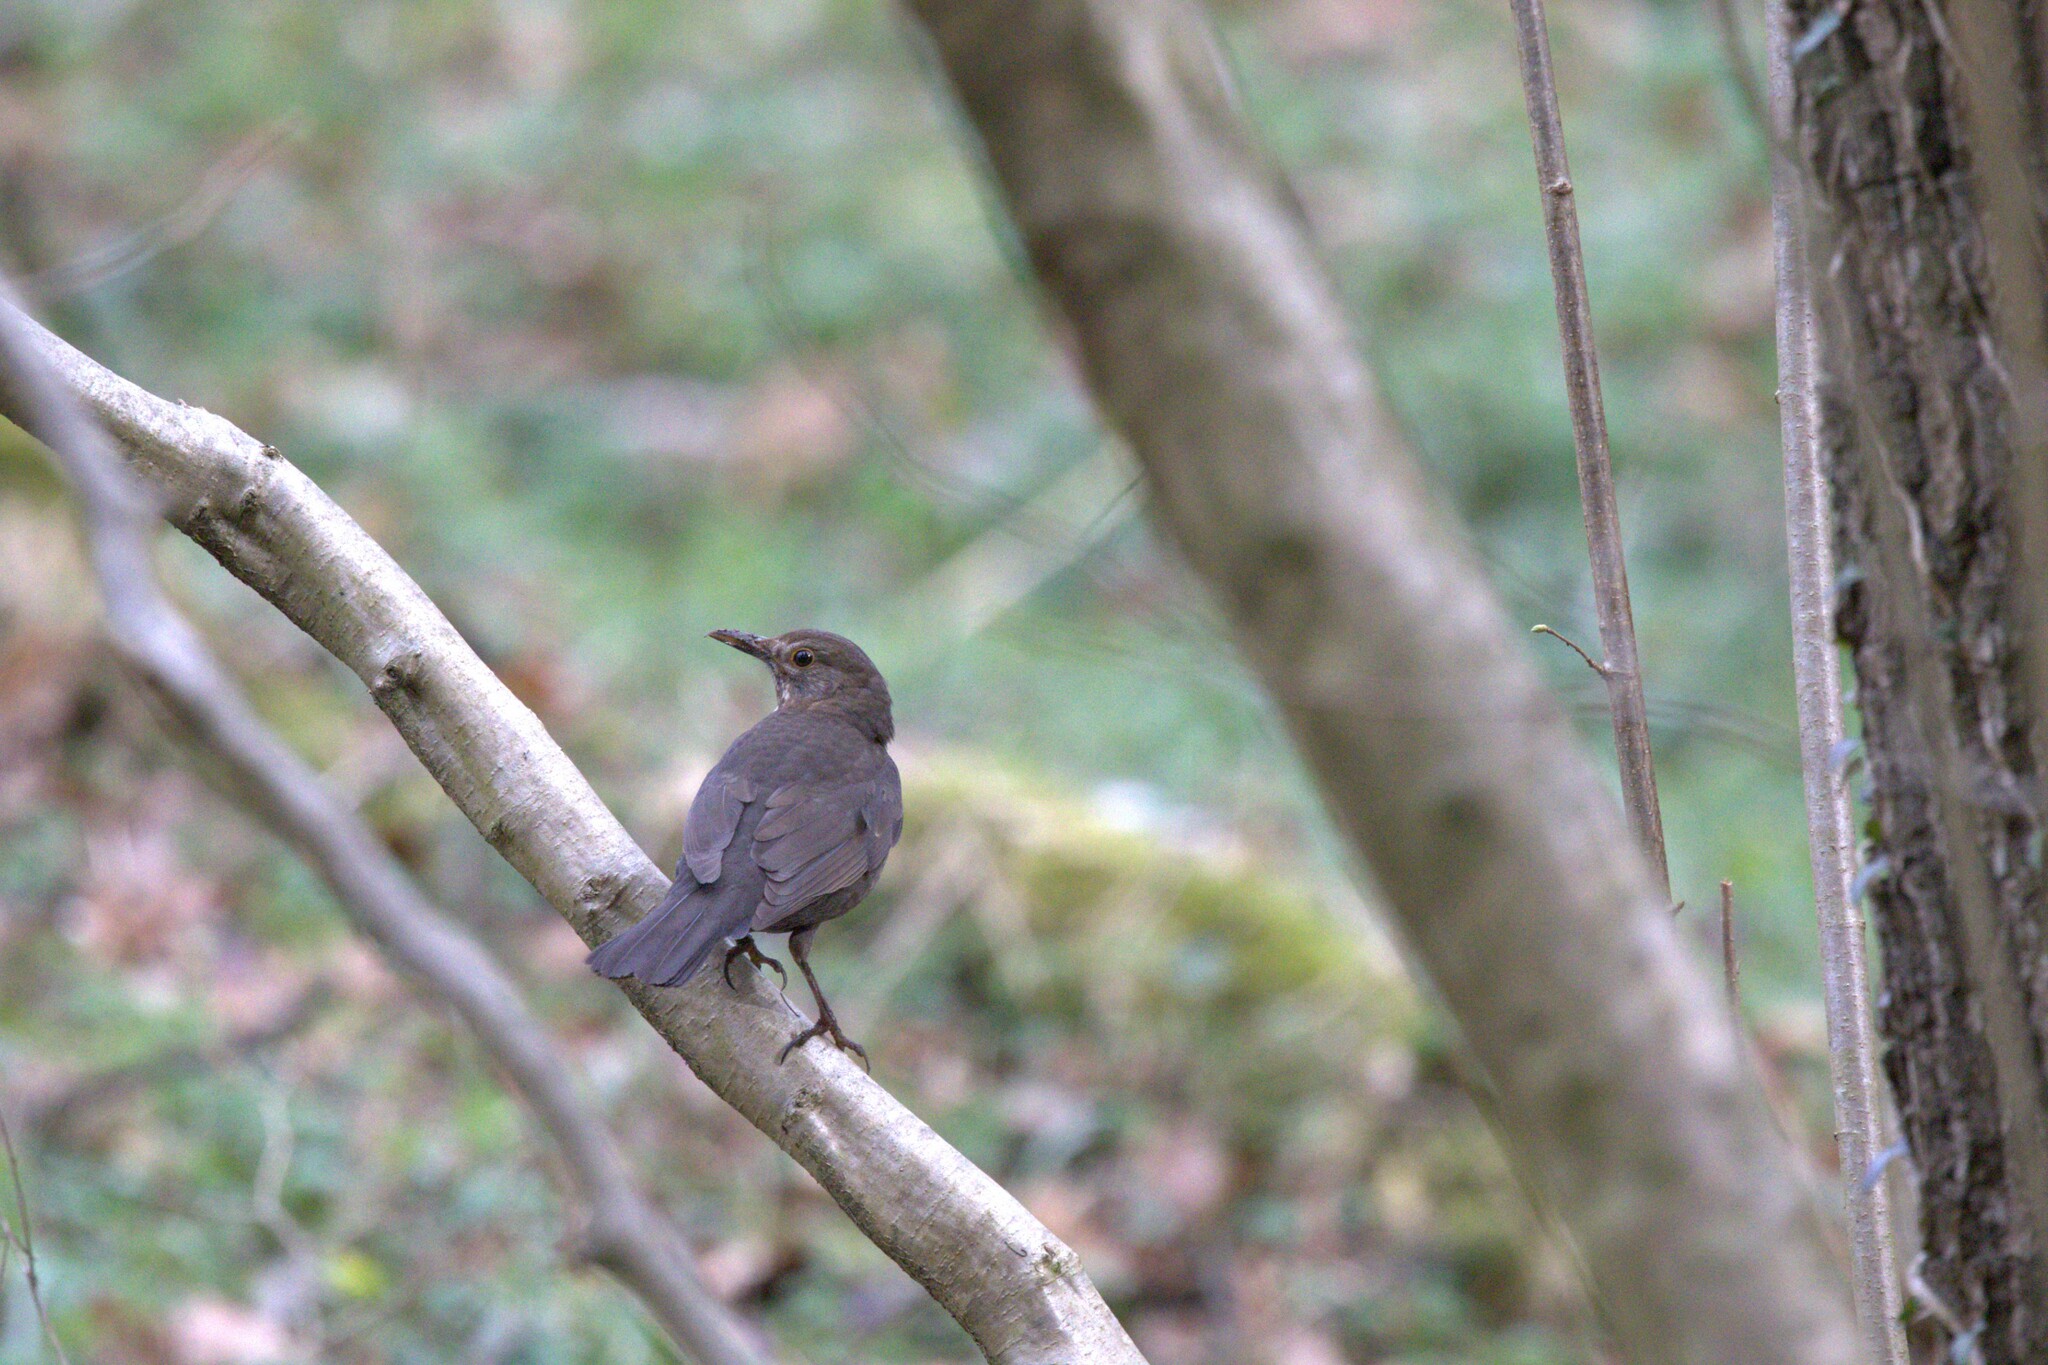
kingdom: Animalia
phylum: Chordata
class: Aves
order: Passeriformes
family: Turdidae
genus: Turdus
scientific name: Turdus merula
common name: Common blackbird
